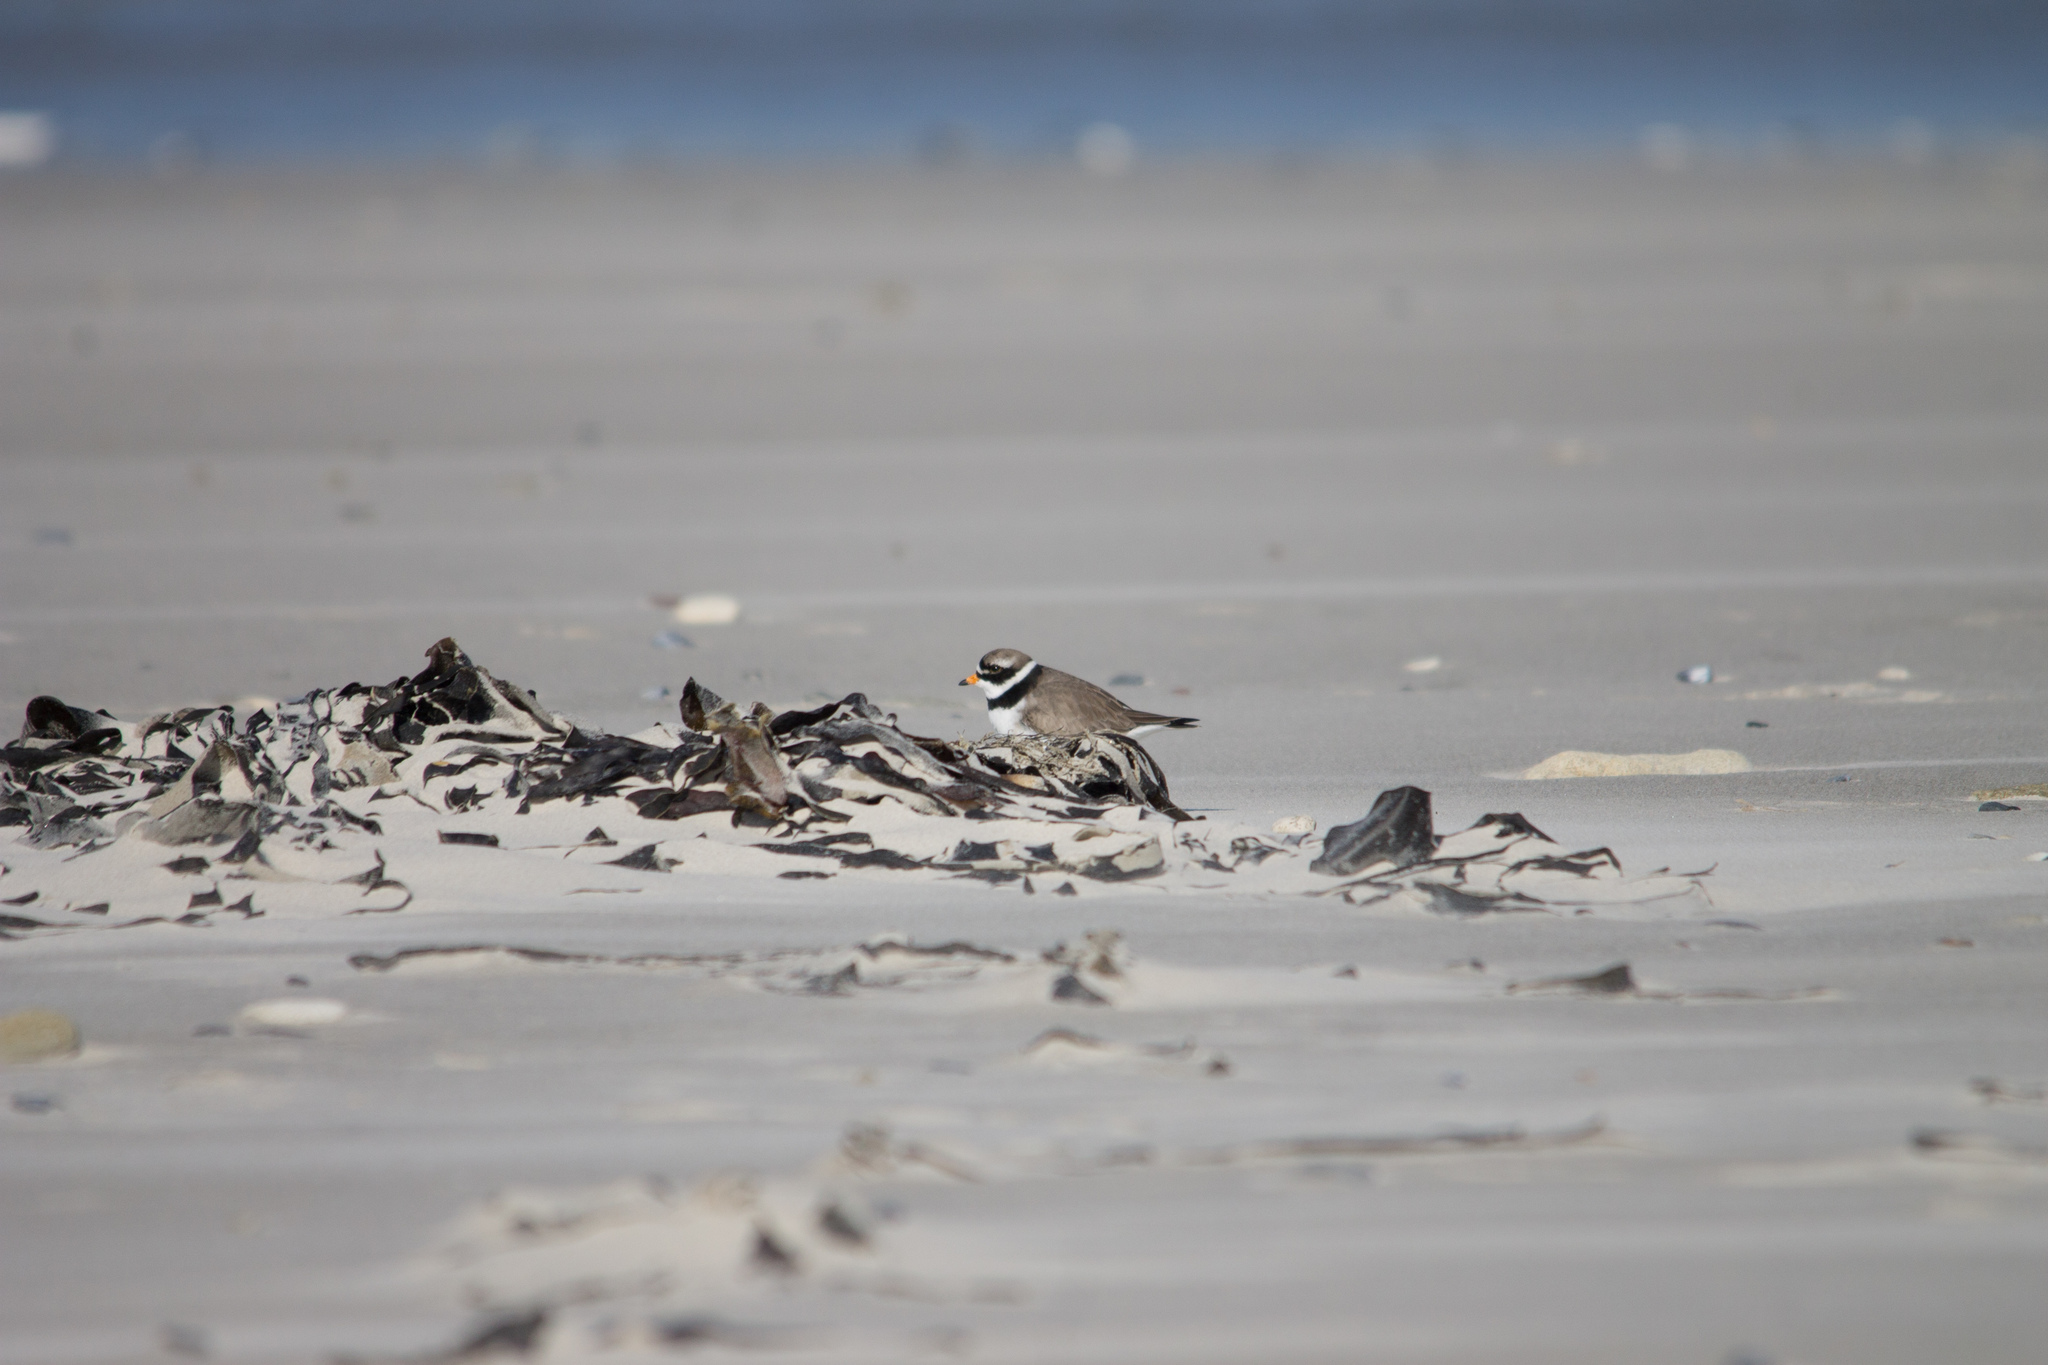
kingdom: Animalia
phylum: Chordata
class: Aves
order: Charadriiformes
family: Charadriidae
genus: Charadrius
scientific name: Charadrius hiaticula
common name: Common ringed plover
